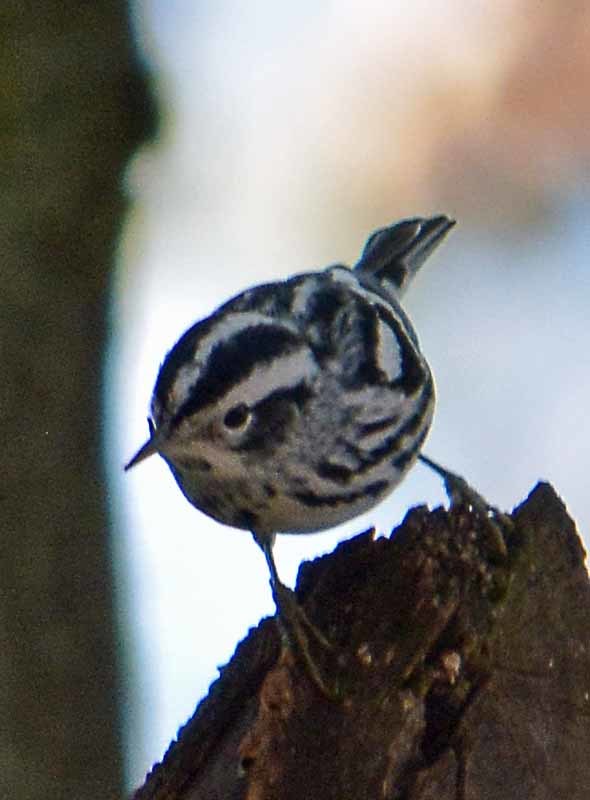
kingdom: Animalia
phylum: Chordata
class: Aves
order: Passeriformes
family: Parulidae
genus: Mniotilta
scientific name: Mniotilta varia
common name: Black-and-white warbler
